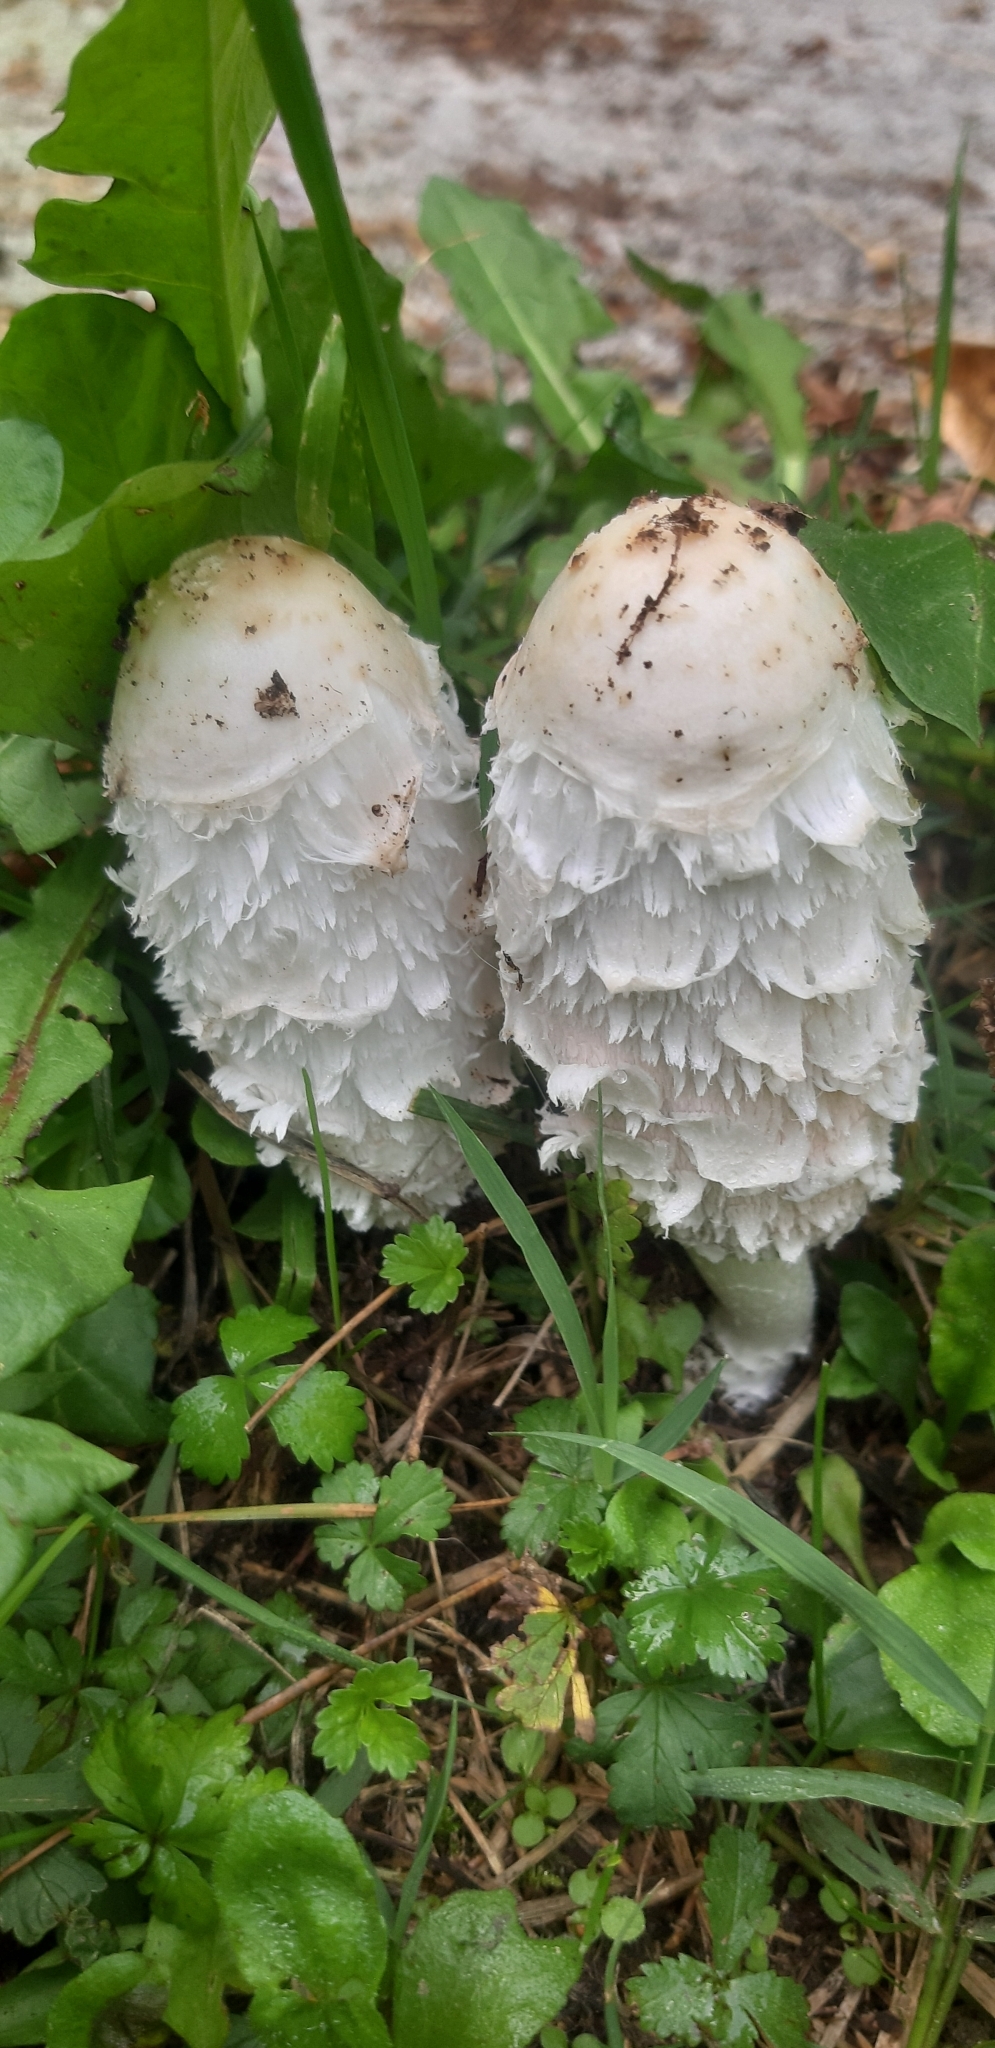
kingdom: Fungi
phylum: Basidiomycota
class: Agaricomycetes
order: Agaricales
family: Agaricaceae
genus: Coprinus
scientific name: Coprinus comatus
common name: Lawyer's wig
